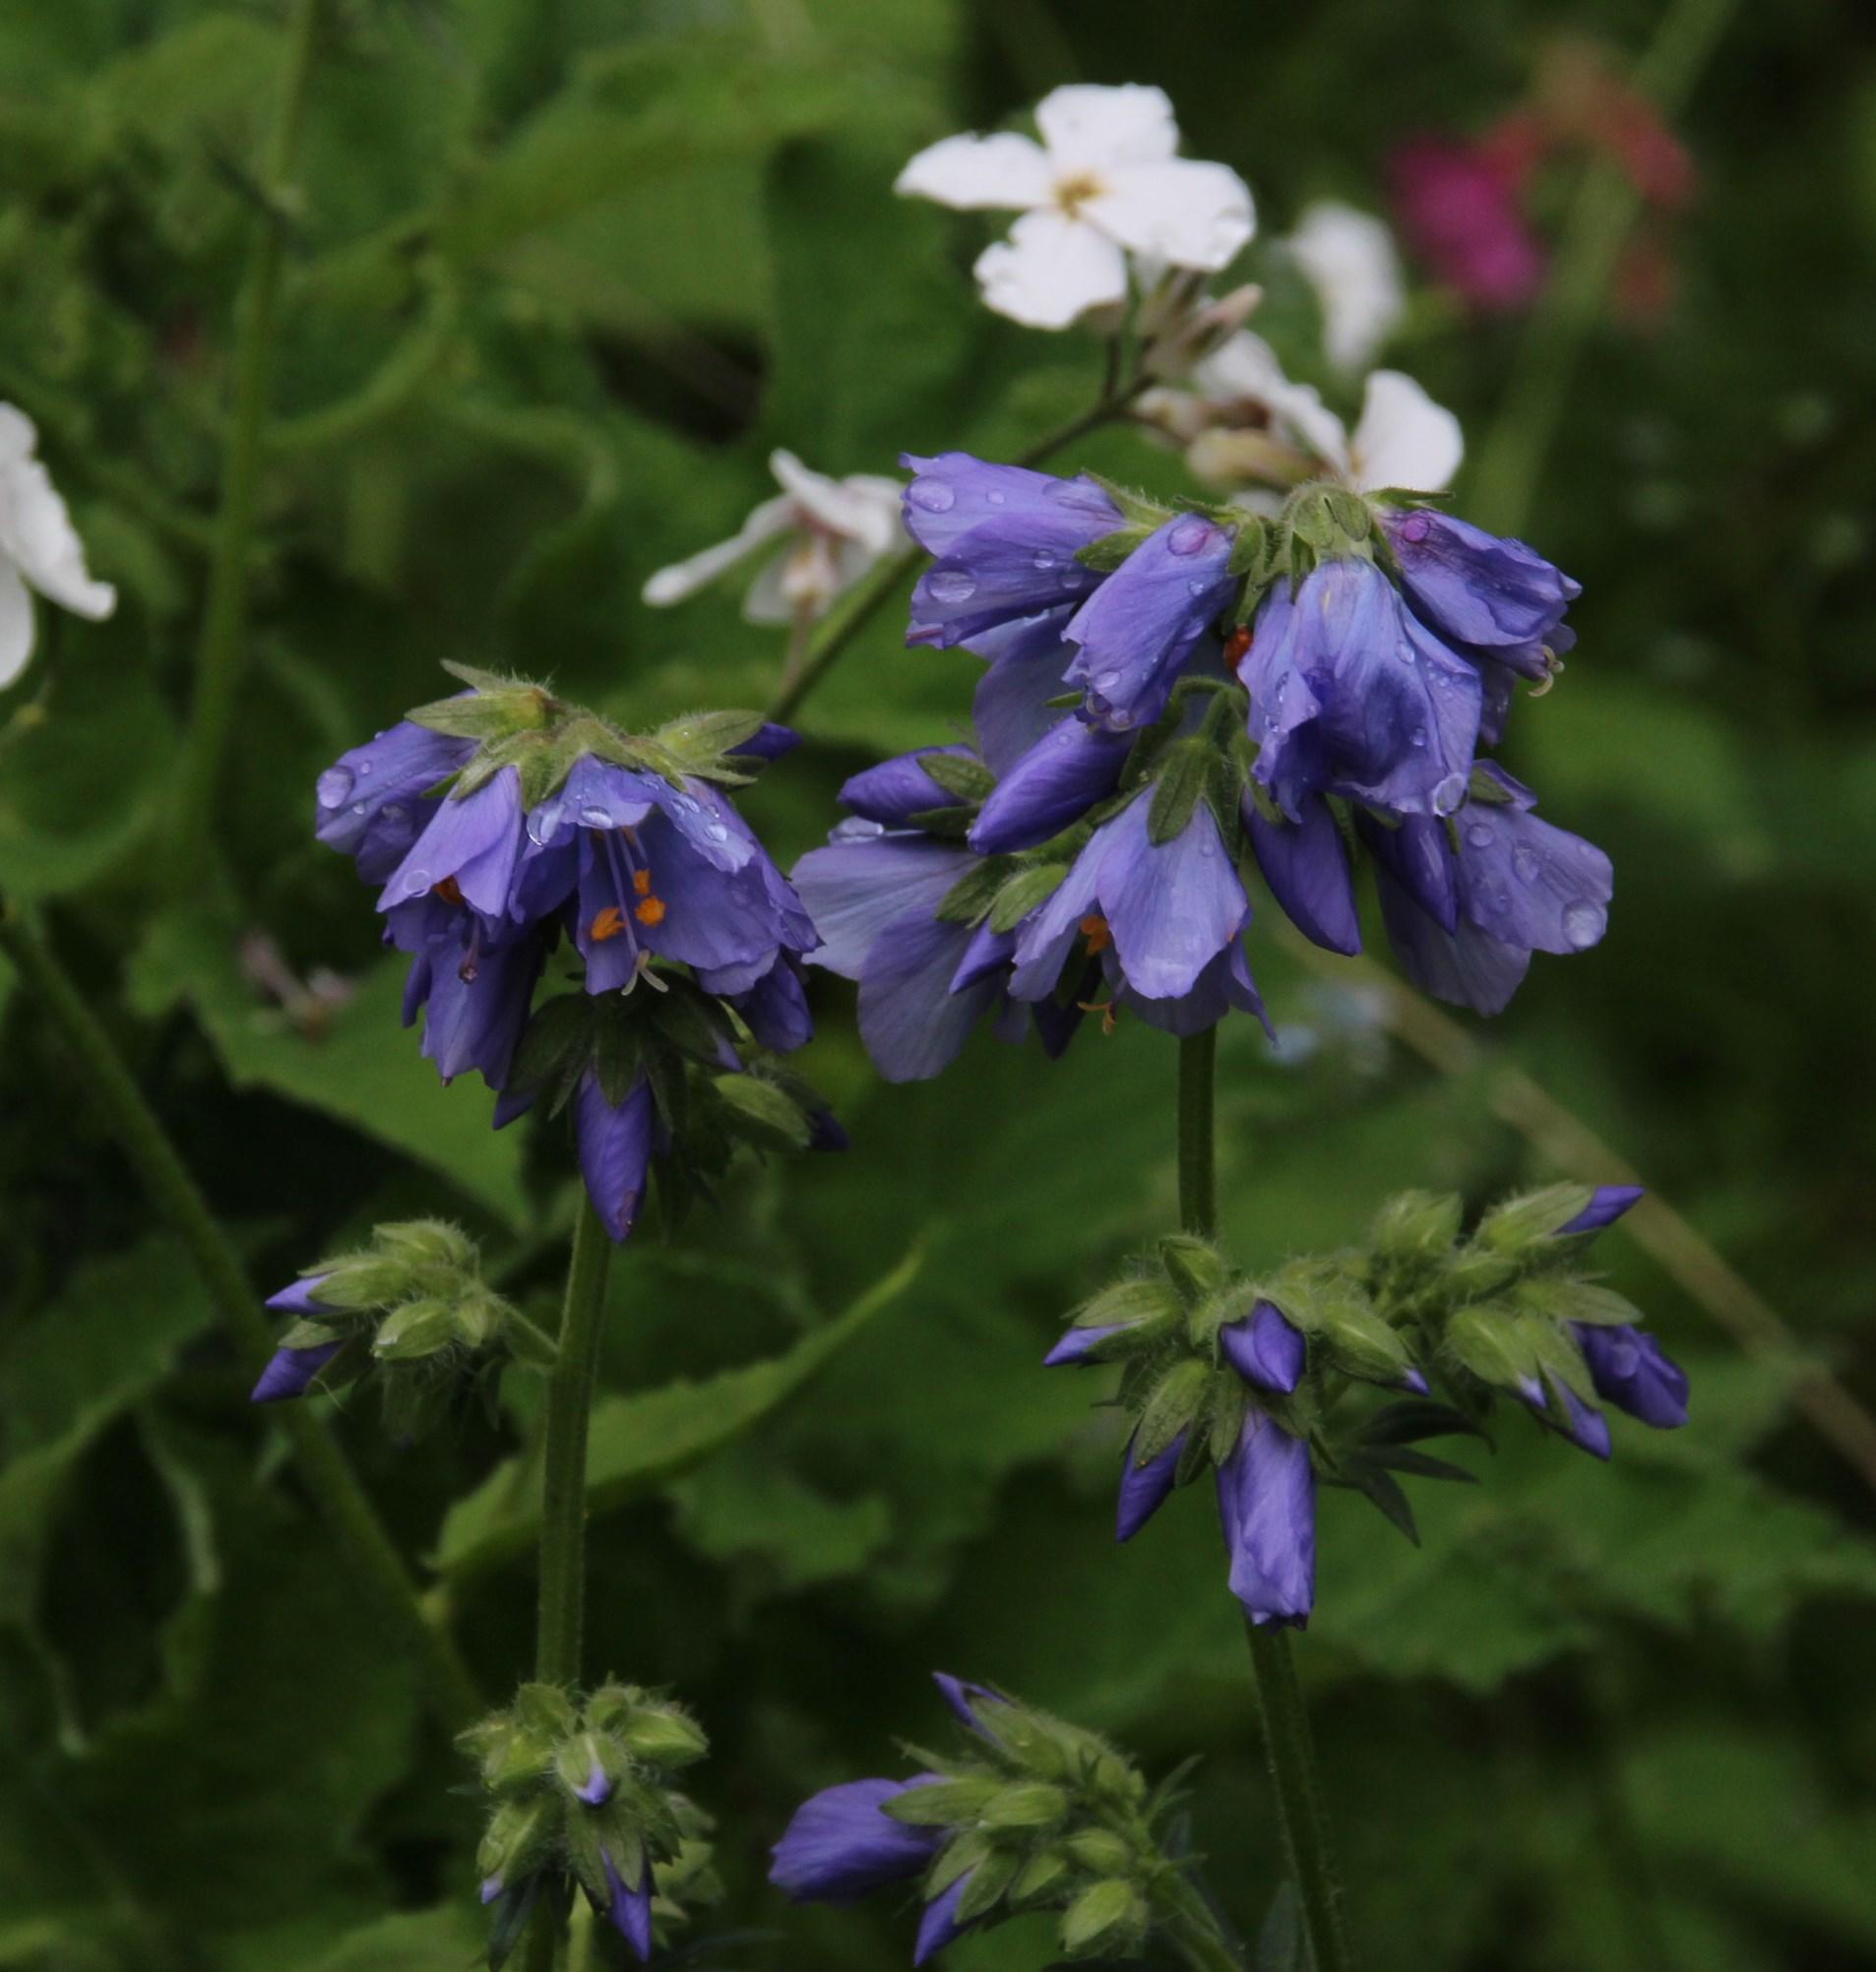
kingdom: Plantae
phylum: Tracheophyta
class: Magnoliopsida
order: Ericales
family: Polemoniaceae
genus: Polemonium
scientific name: Polemonium caeruleum
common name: Jacob's-ladder
